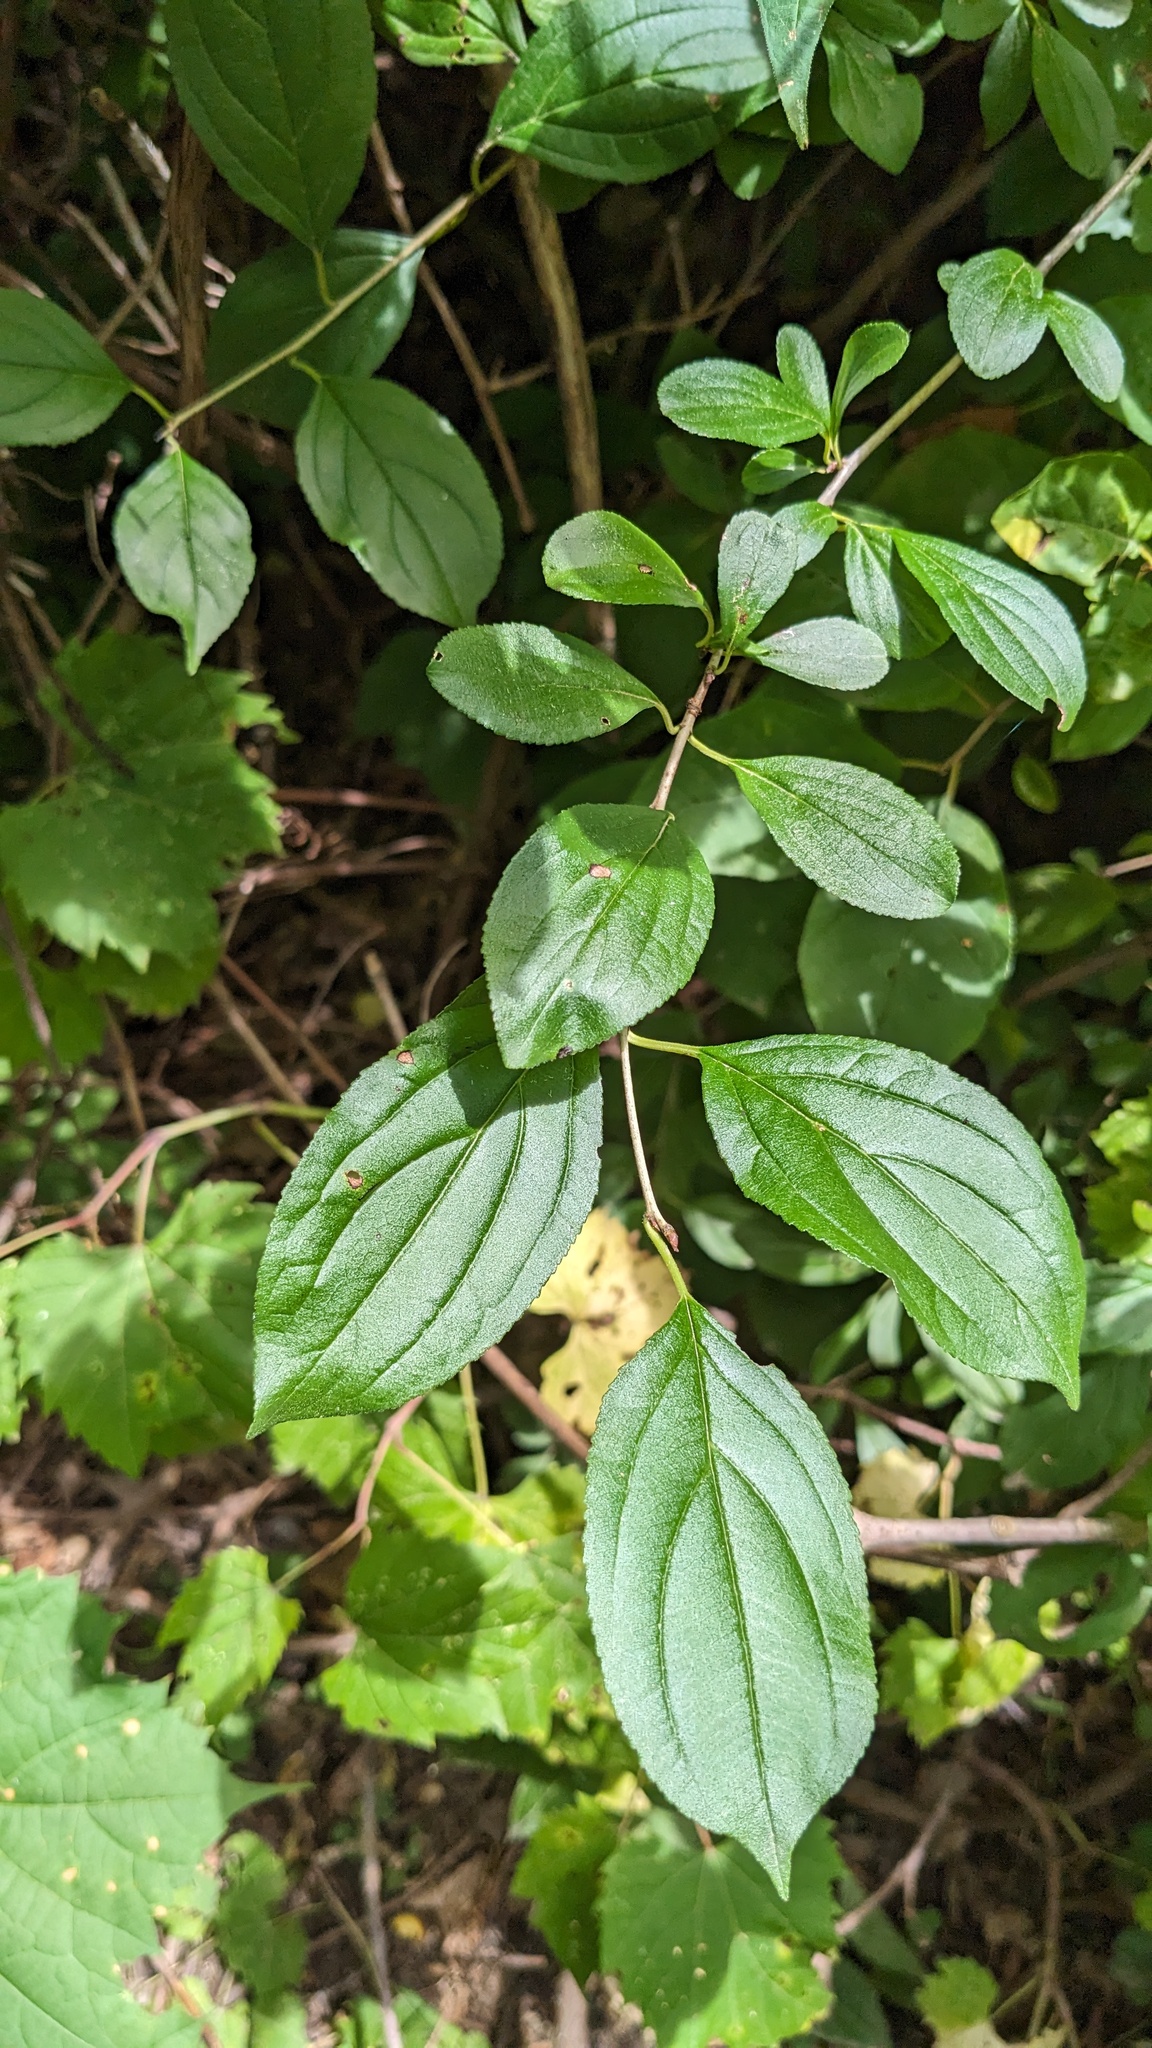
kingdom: Plantae
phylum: Tracheophyta
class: Magnoliopsida
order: Rosales
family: Rhamnaceae
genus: Rhamnus
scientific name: Rhamnus cathartica
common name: Common buckthorn
